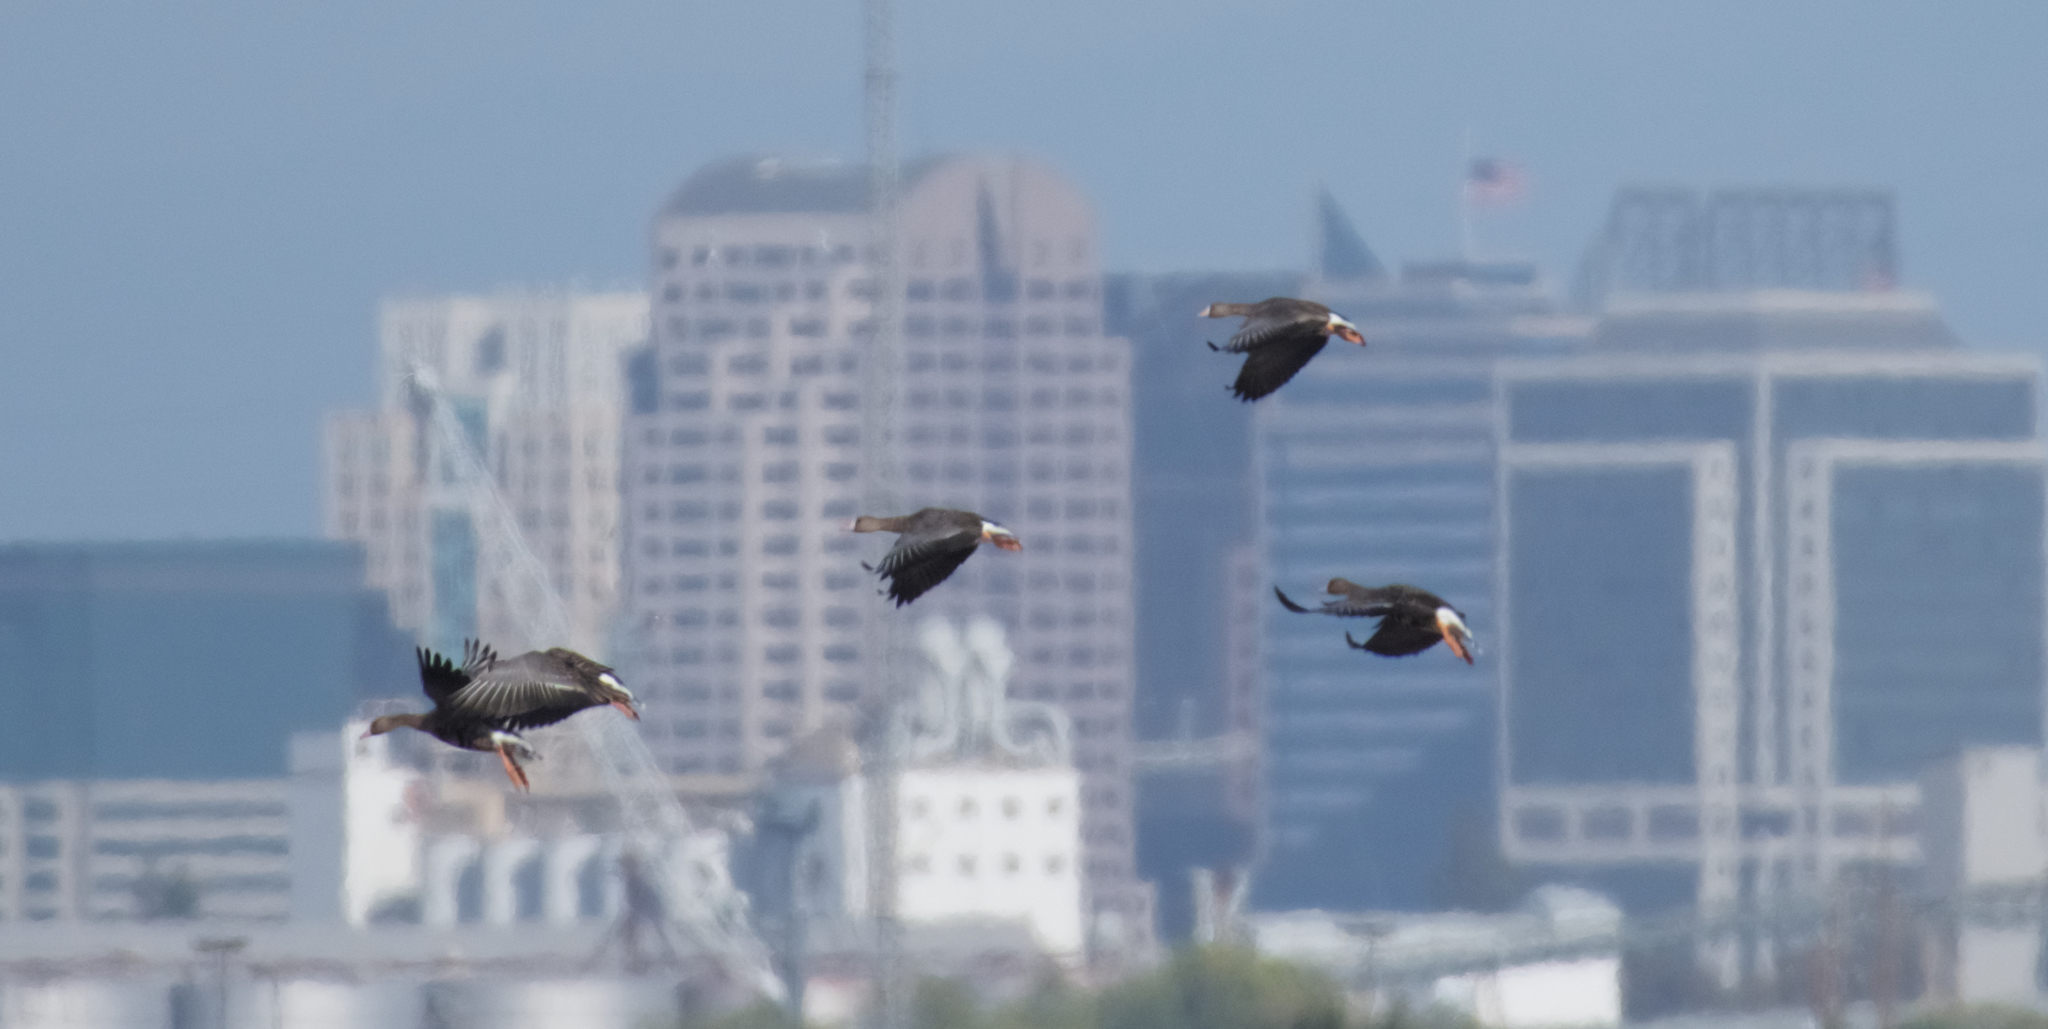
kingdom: Animalia
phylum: Chordata
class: Aves
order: Anseriformes
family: Anatidae
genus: Anser
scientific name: Anser albifrons
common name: Greater white-fronted goose
